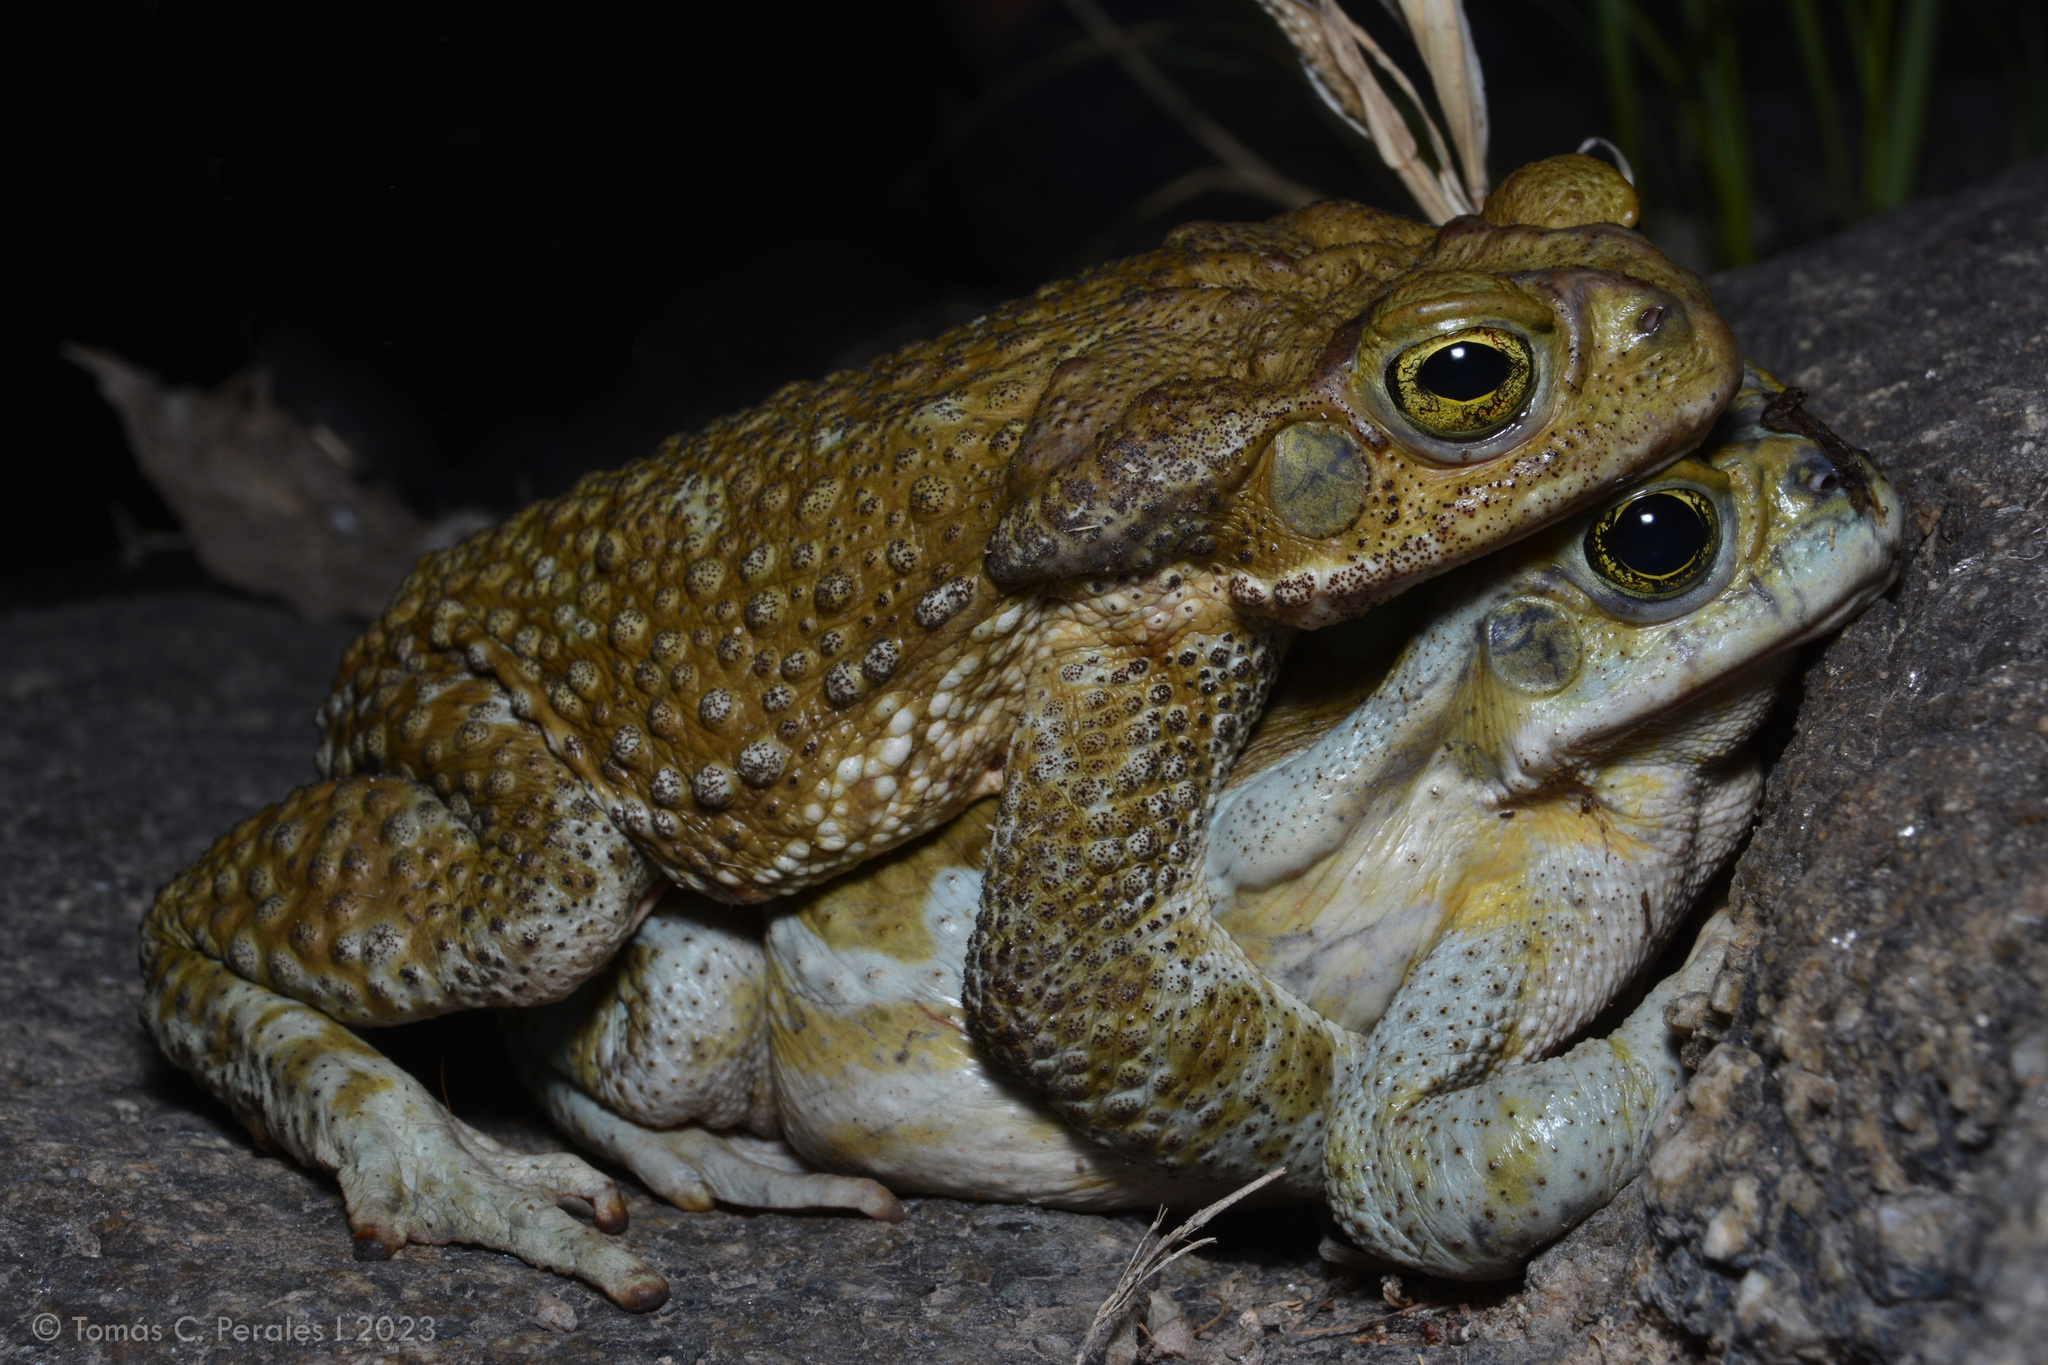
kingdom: Animalia
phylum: Chordata
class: Amphibia
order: Anura
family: Bufonidae
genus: Rhinella
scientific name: Rhinella arenarum
